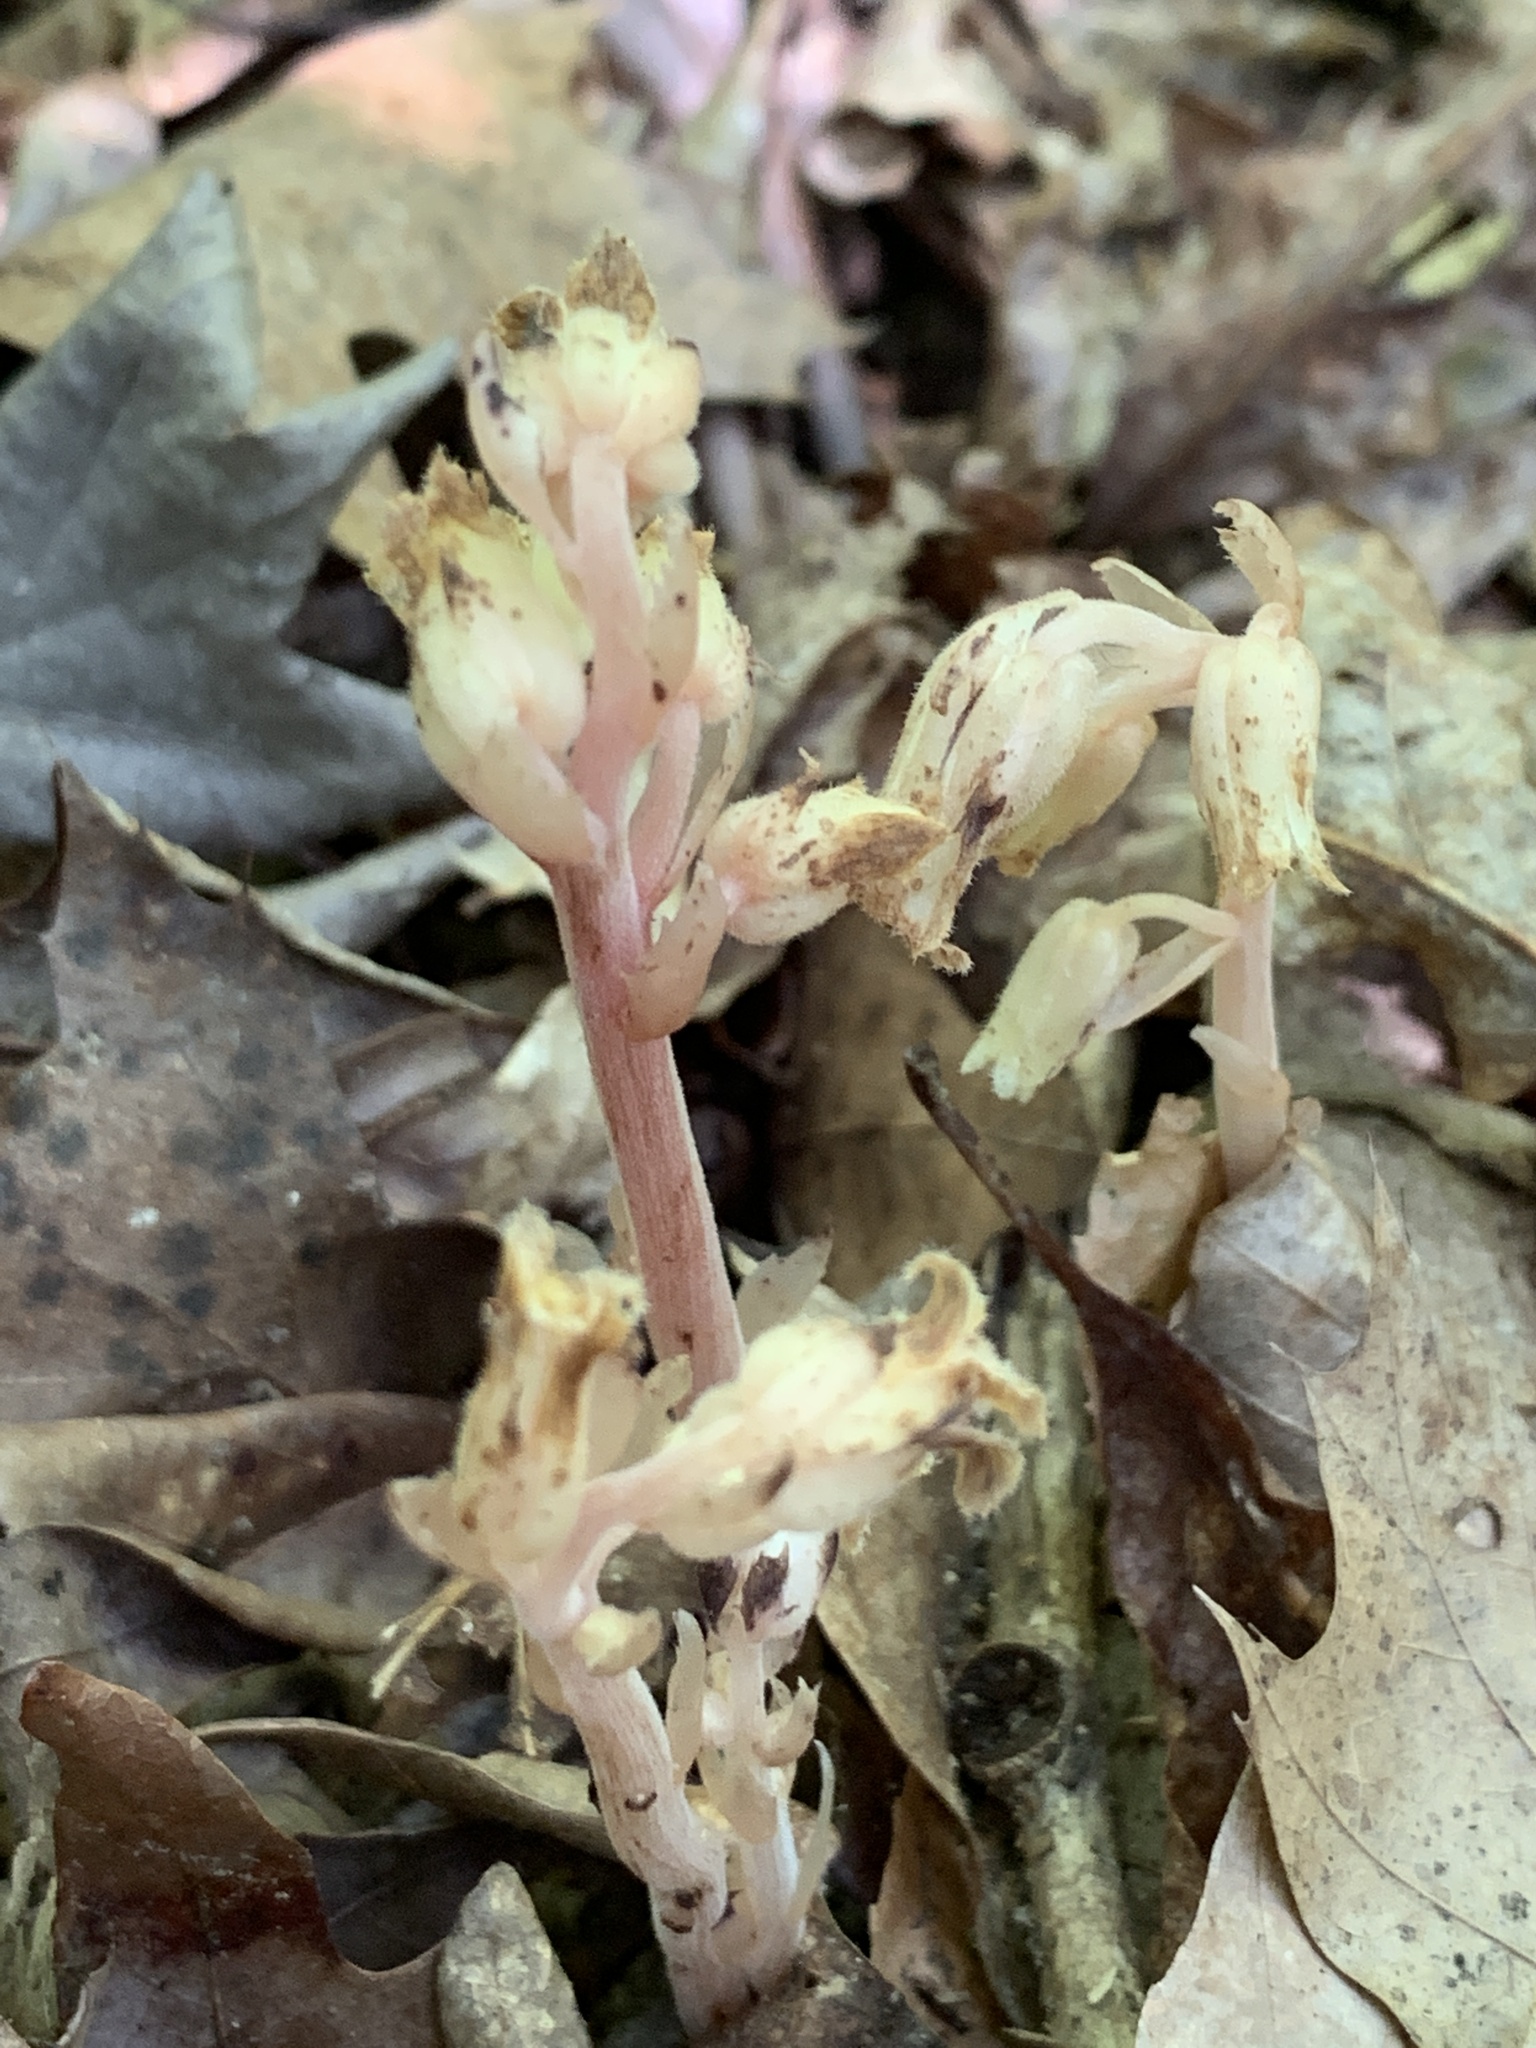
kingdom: Plantae
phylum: Tracheophyta
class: Magnoliopsida
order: Ericales
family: Ericaceae
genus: Hypopitys
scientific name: Hypopitys monotropa
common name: Yellow bird's-nest
